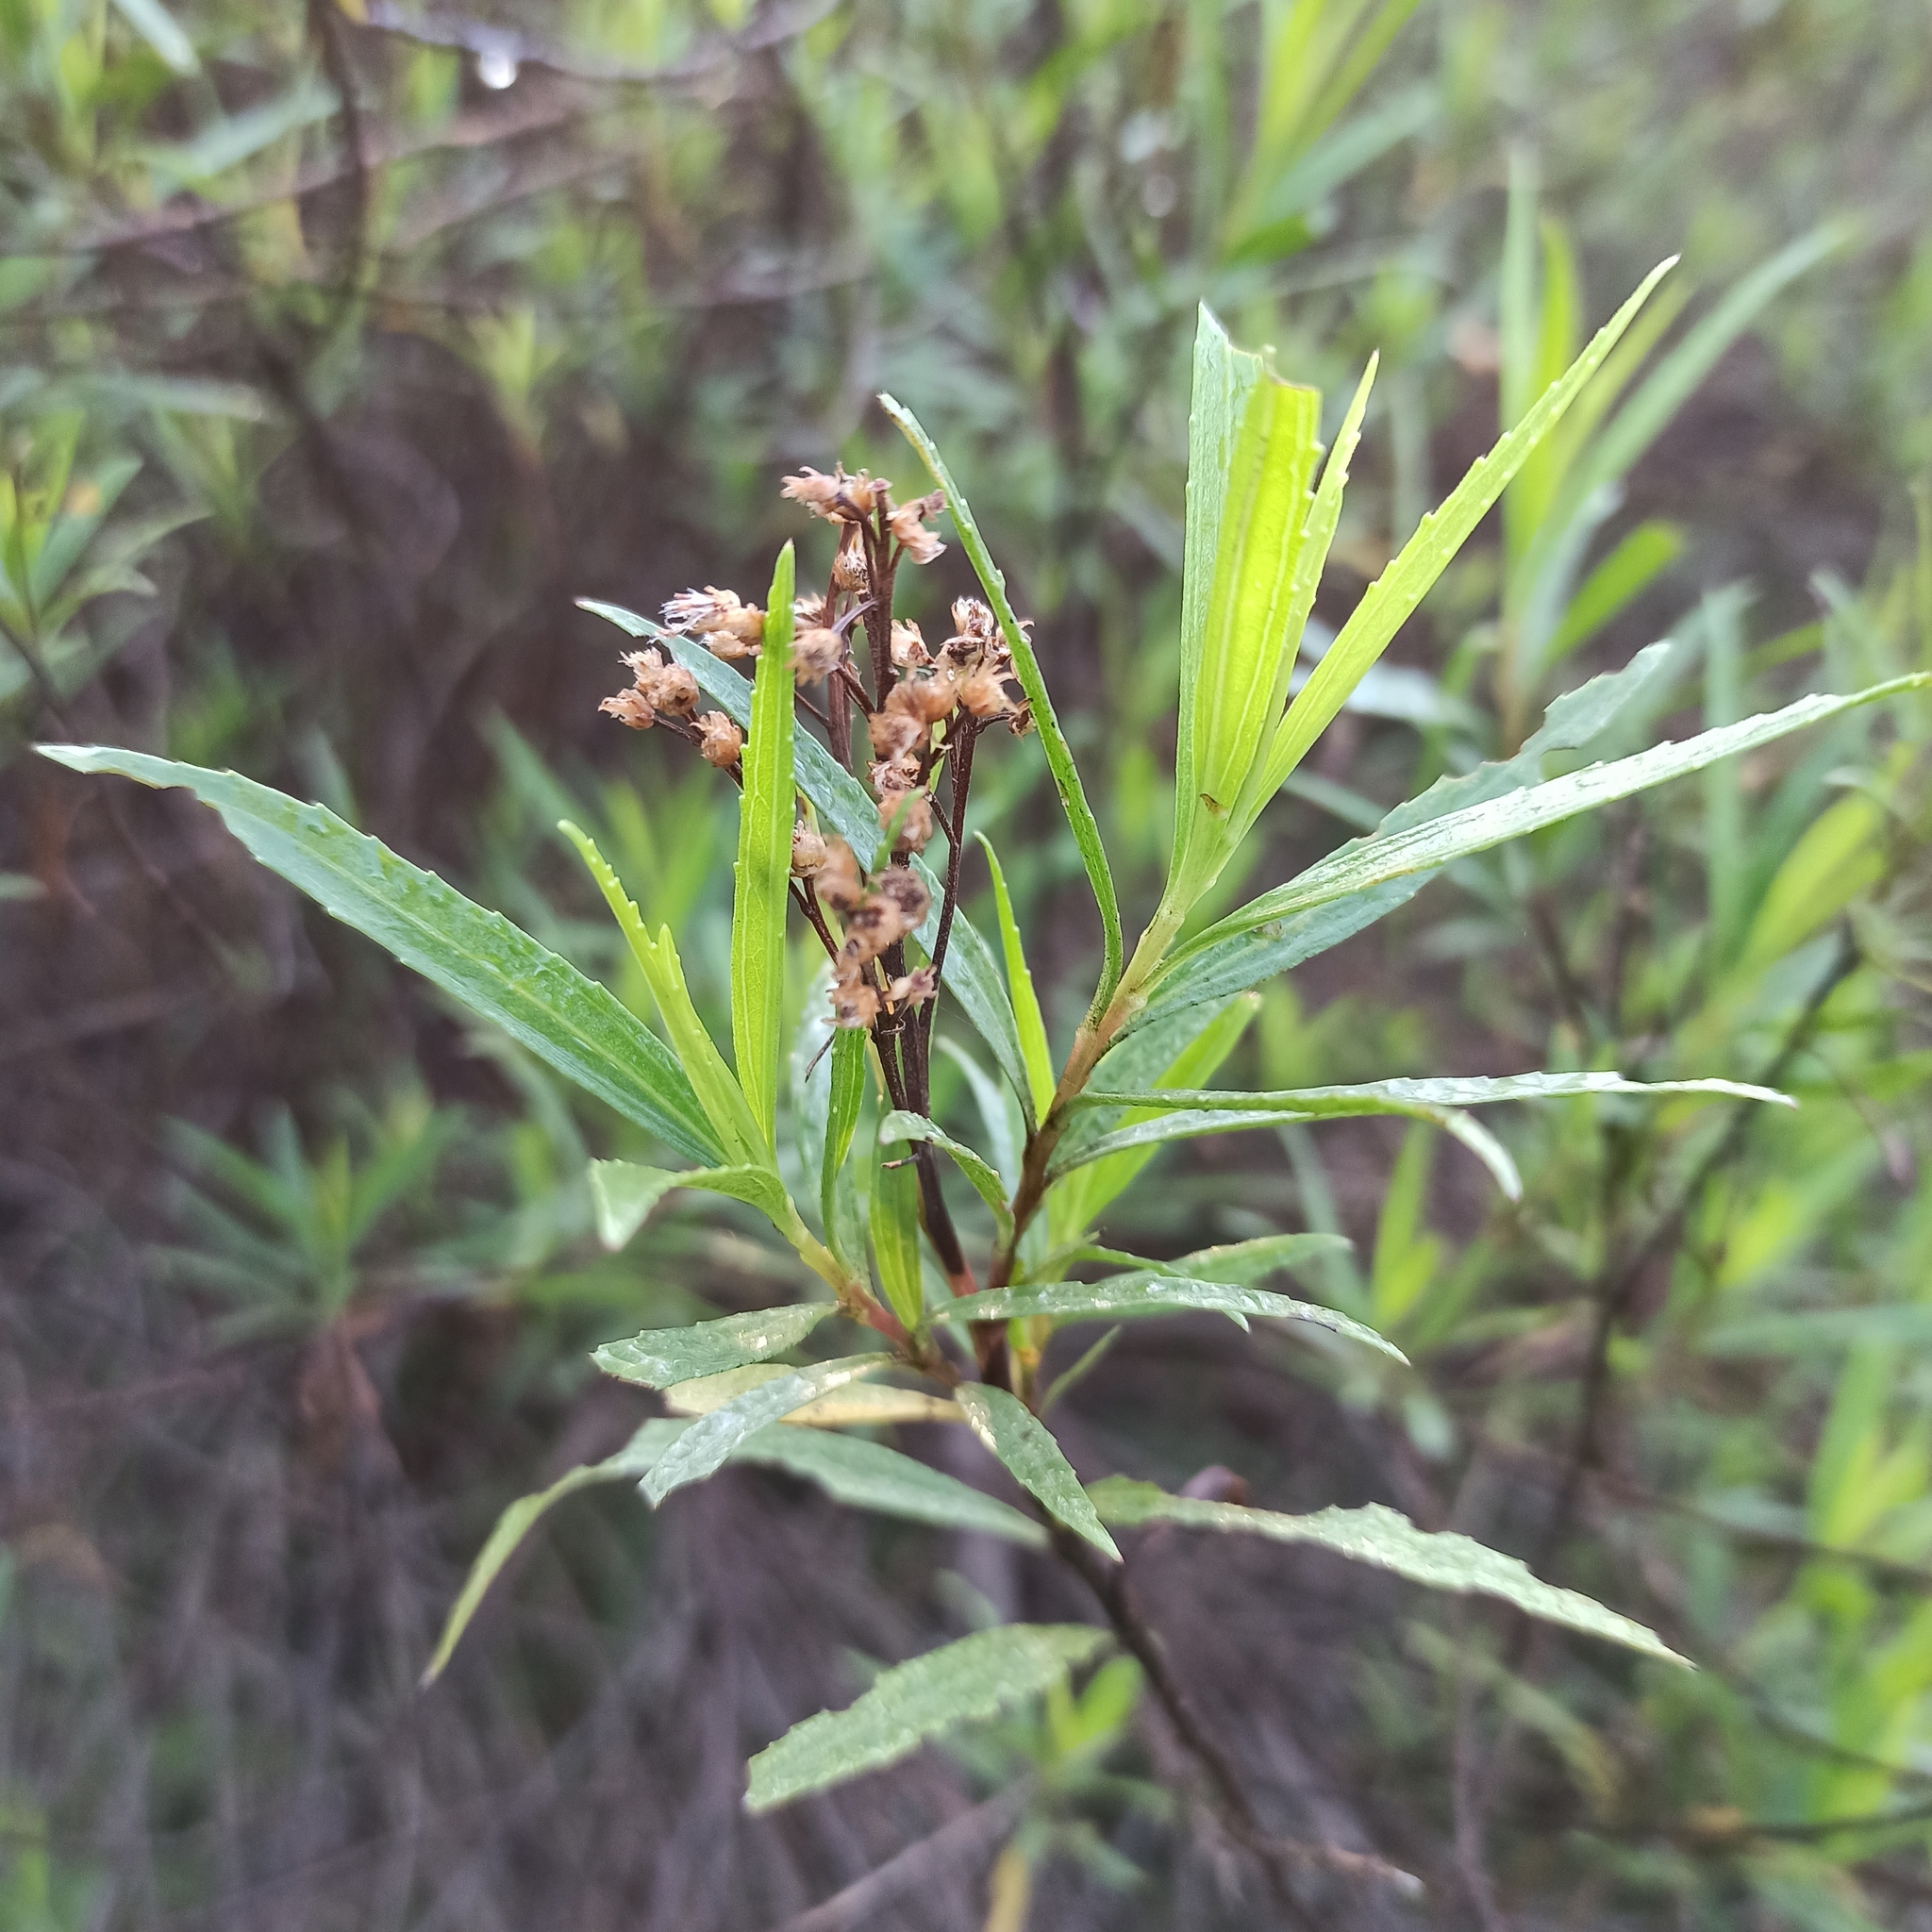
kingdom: Plantae
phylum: Tracheophyta
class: Magnoliopsida
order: Asterales
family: Asteraceae
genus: Baccharis
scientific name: Baccharis salicifolia
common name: Sticky baccharis
